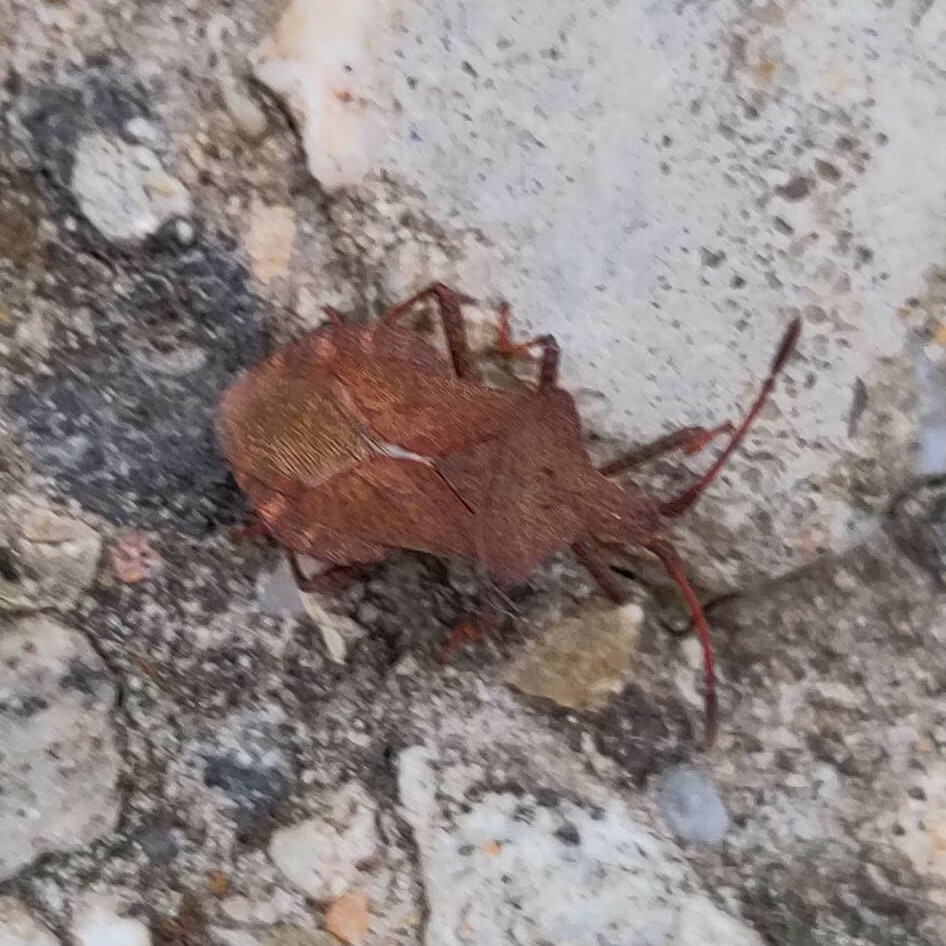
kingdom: Animalia
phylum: Arthropoda
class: Insecta
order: Hemiptera
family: Coreidae
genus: Coreus
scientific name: Coreus marginatus
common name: Dock bug
